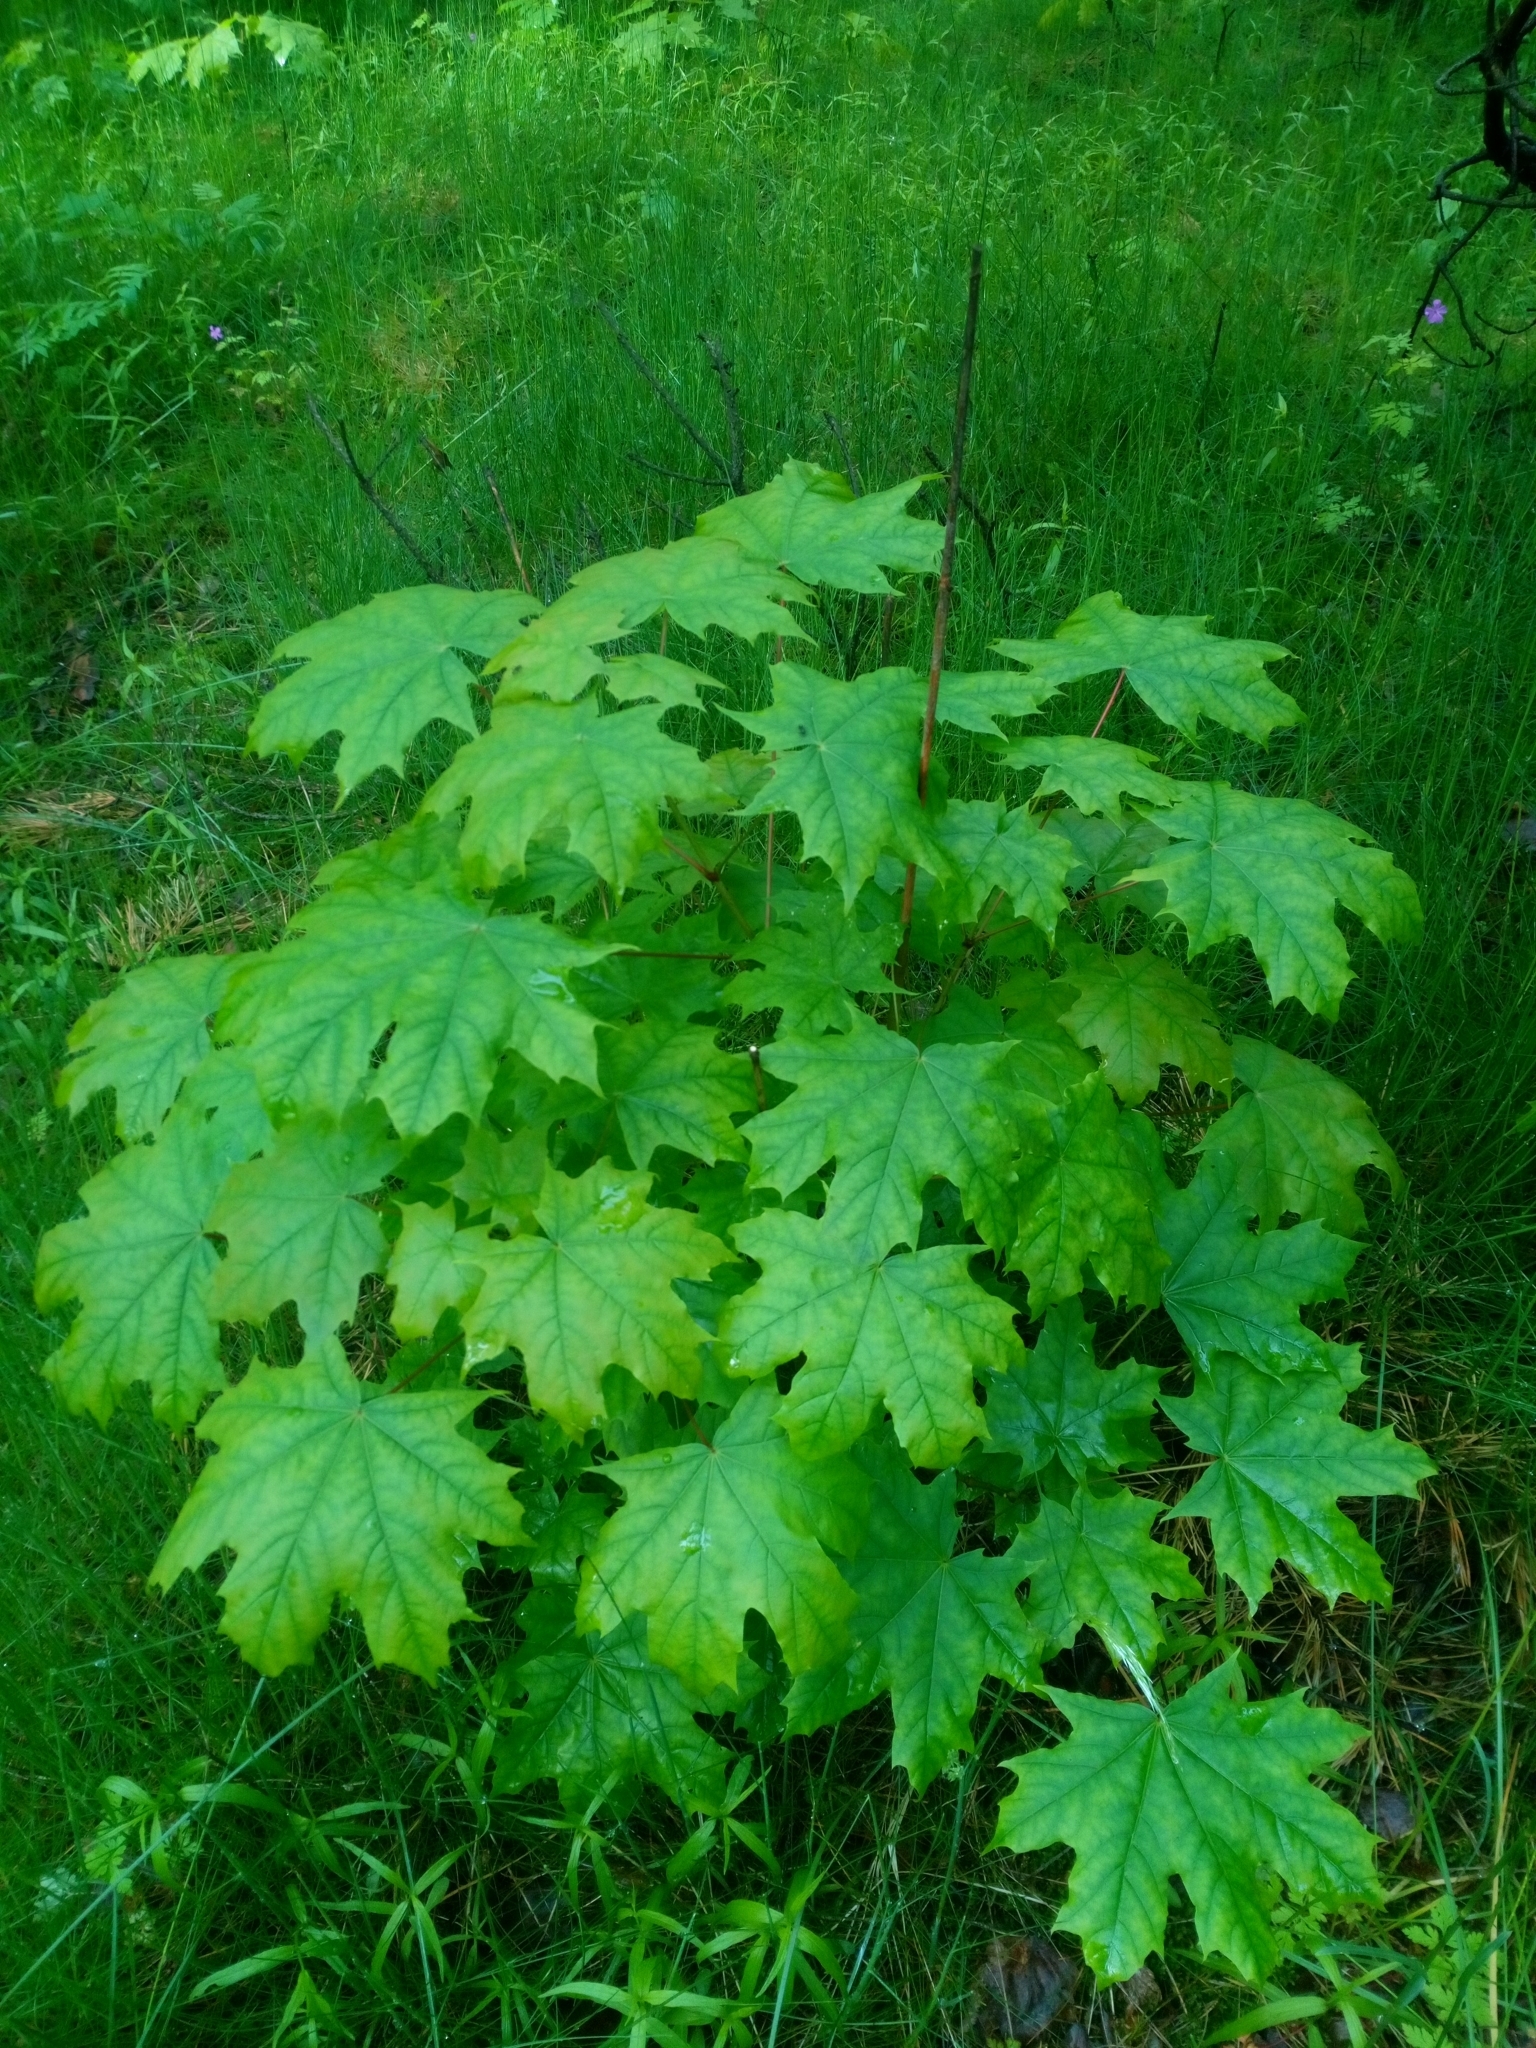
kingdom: Plantae
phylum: Tracheophyta
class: Magnoliopsida
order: Sapindales
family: Sapindaceae
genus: Acer
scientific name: Acer platanoides
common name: Norway maple
